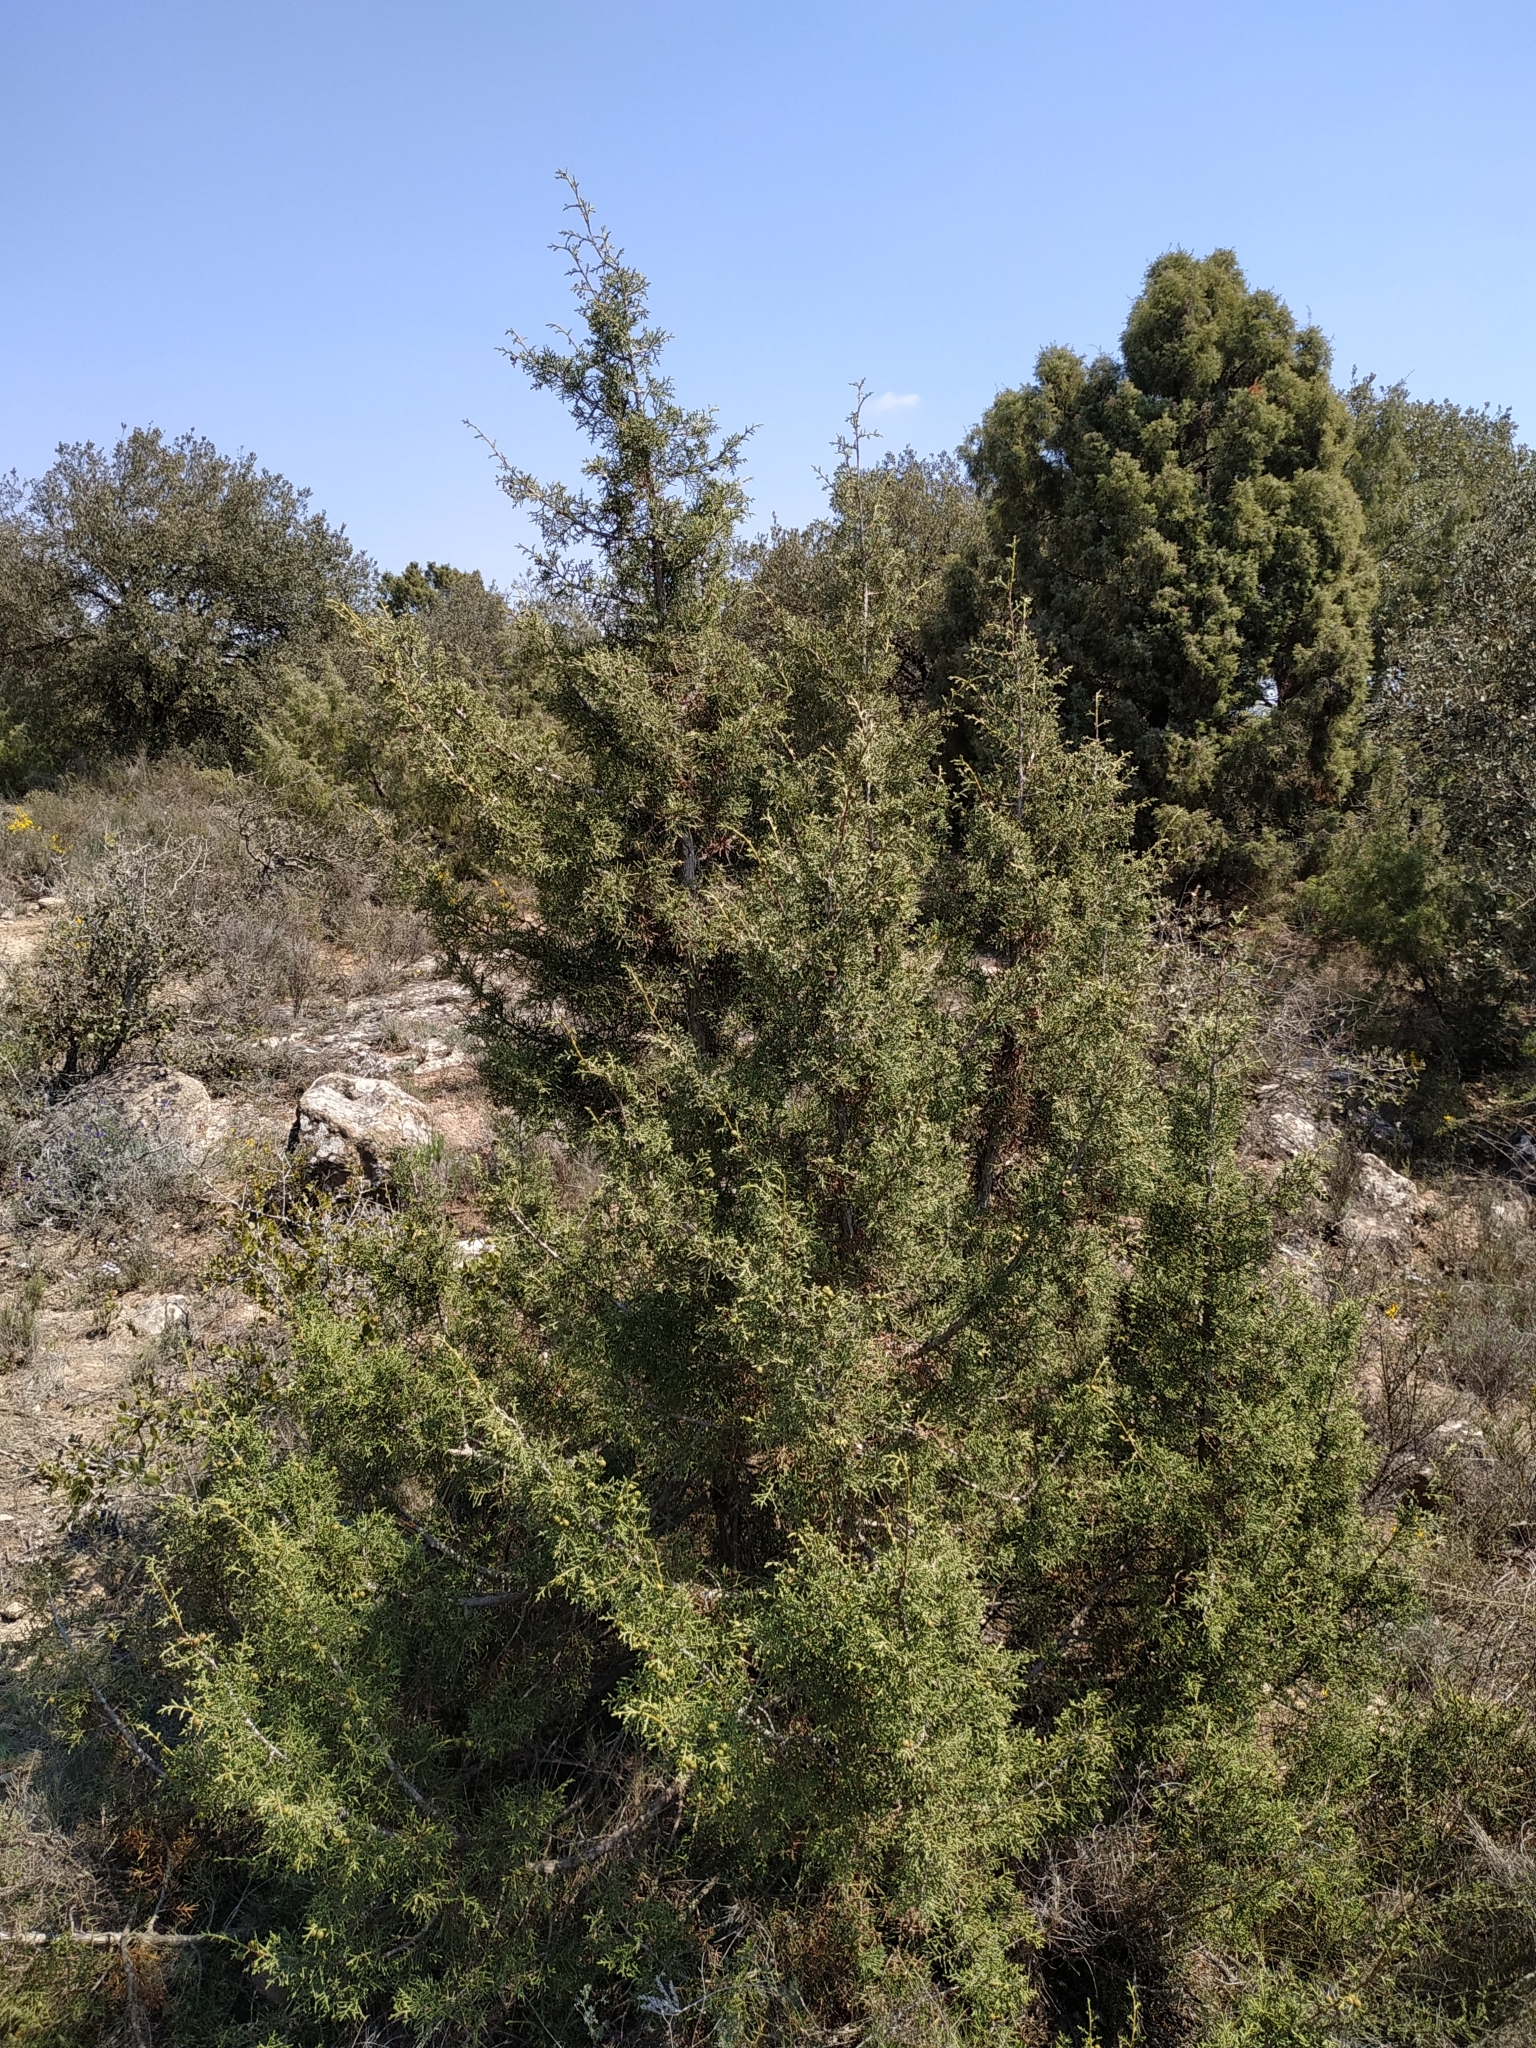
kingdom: Plantae
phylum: Tracheophyta
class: Pinopsida
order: Pinales
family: Cupressaceae
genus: Juniperus
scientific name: Juniperus phoenicea
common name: Phoenician juniper
